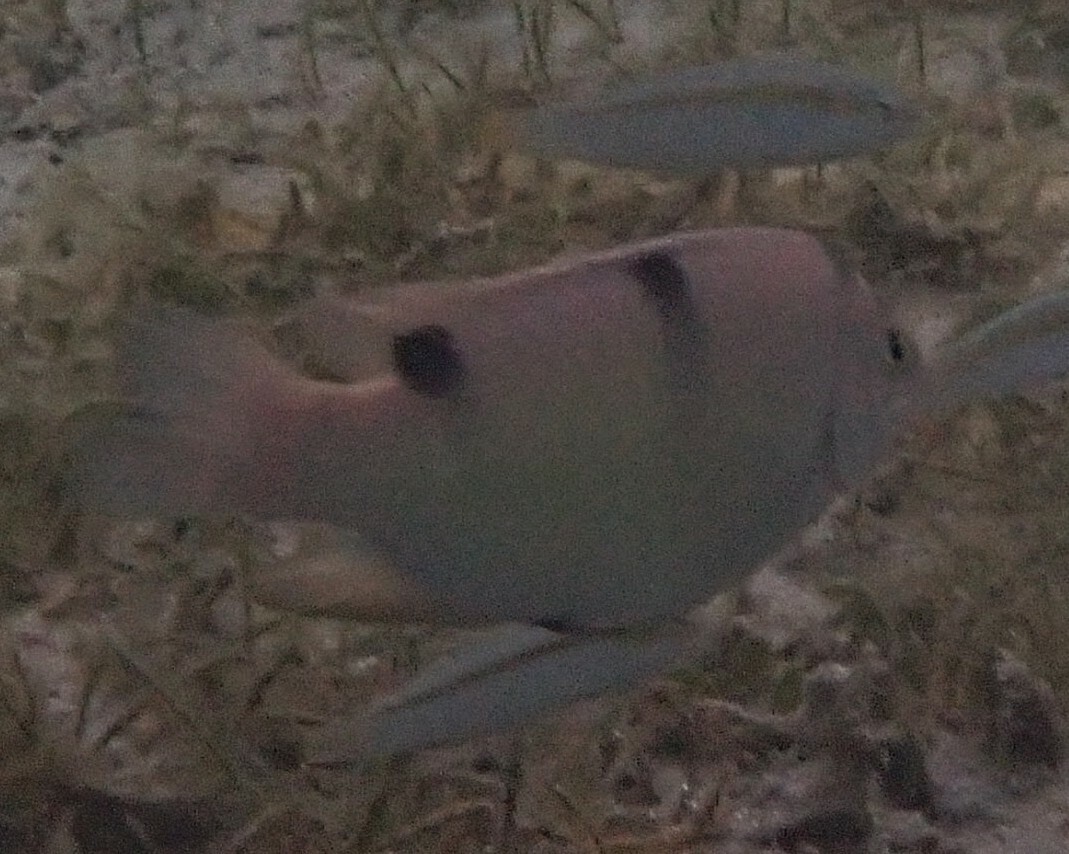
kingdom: Animalia
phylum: Chordata
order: Perciformes
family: Pomacentridae
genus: Dischistodus
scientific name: Dischistodus perspicillatus
